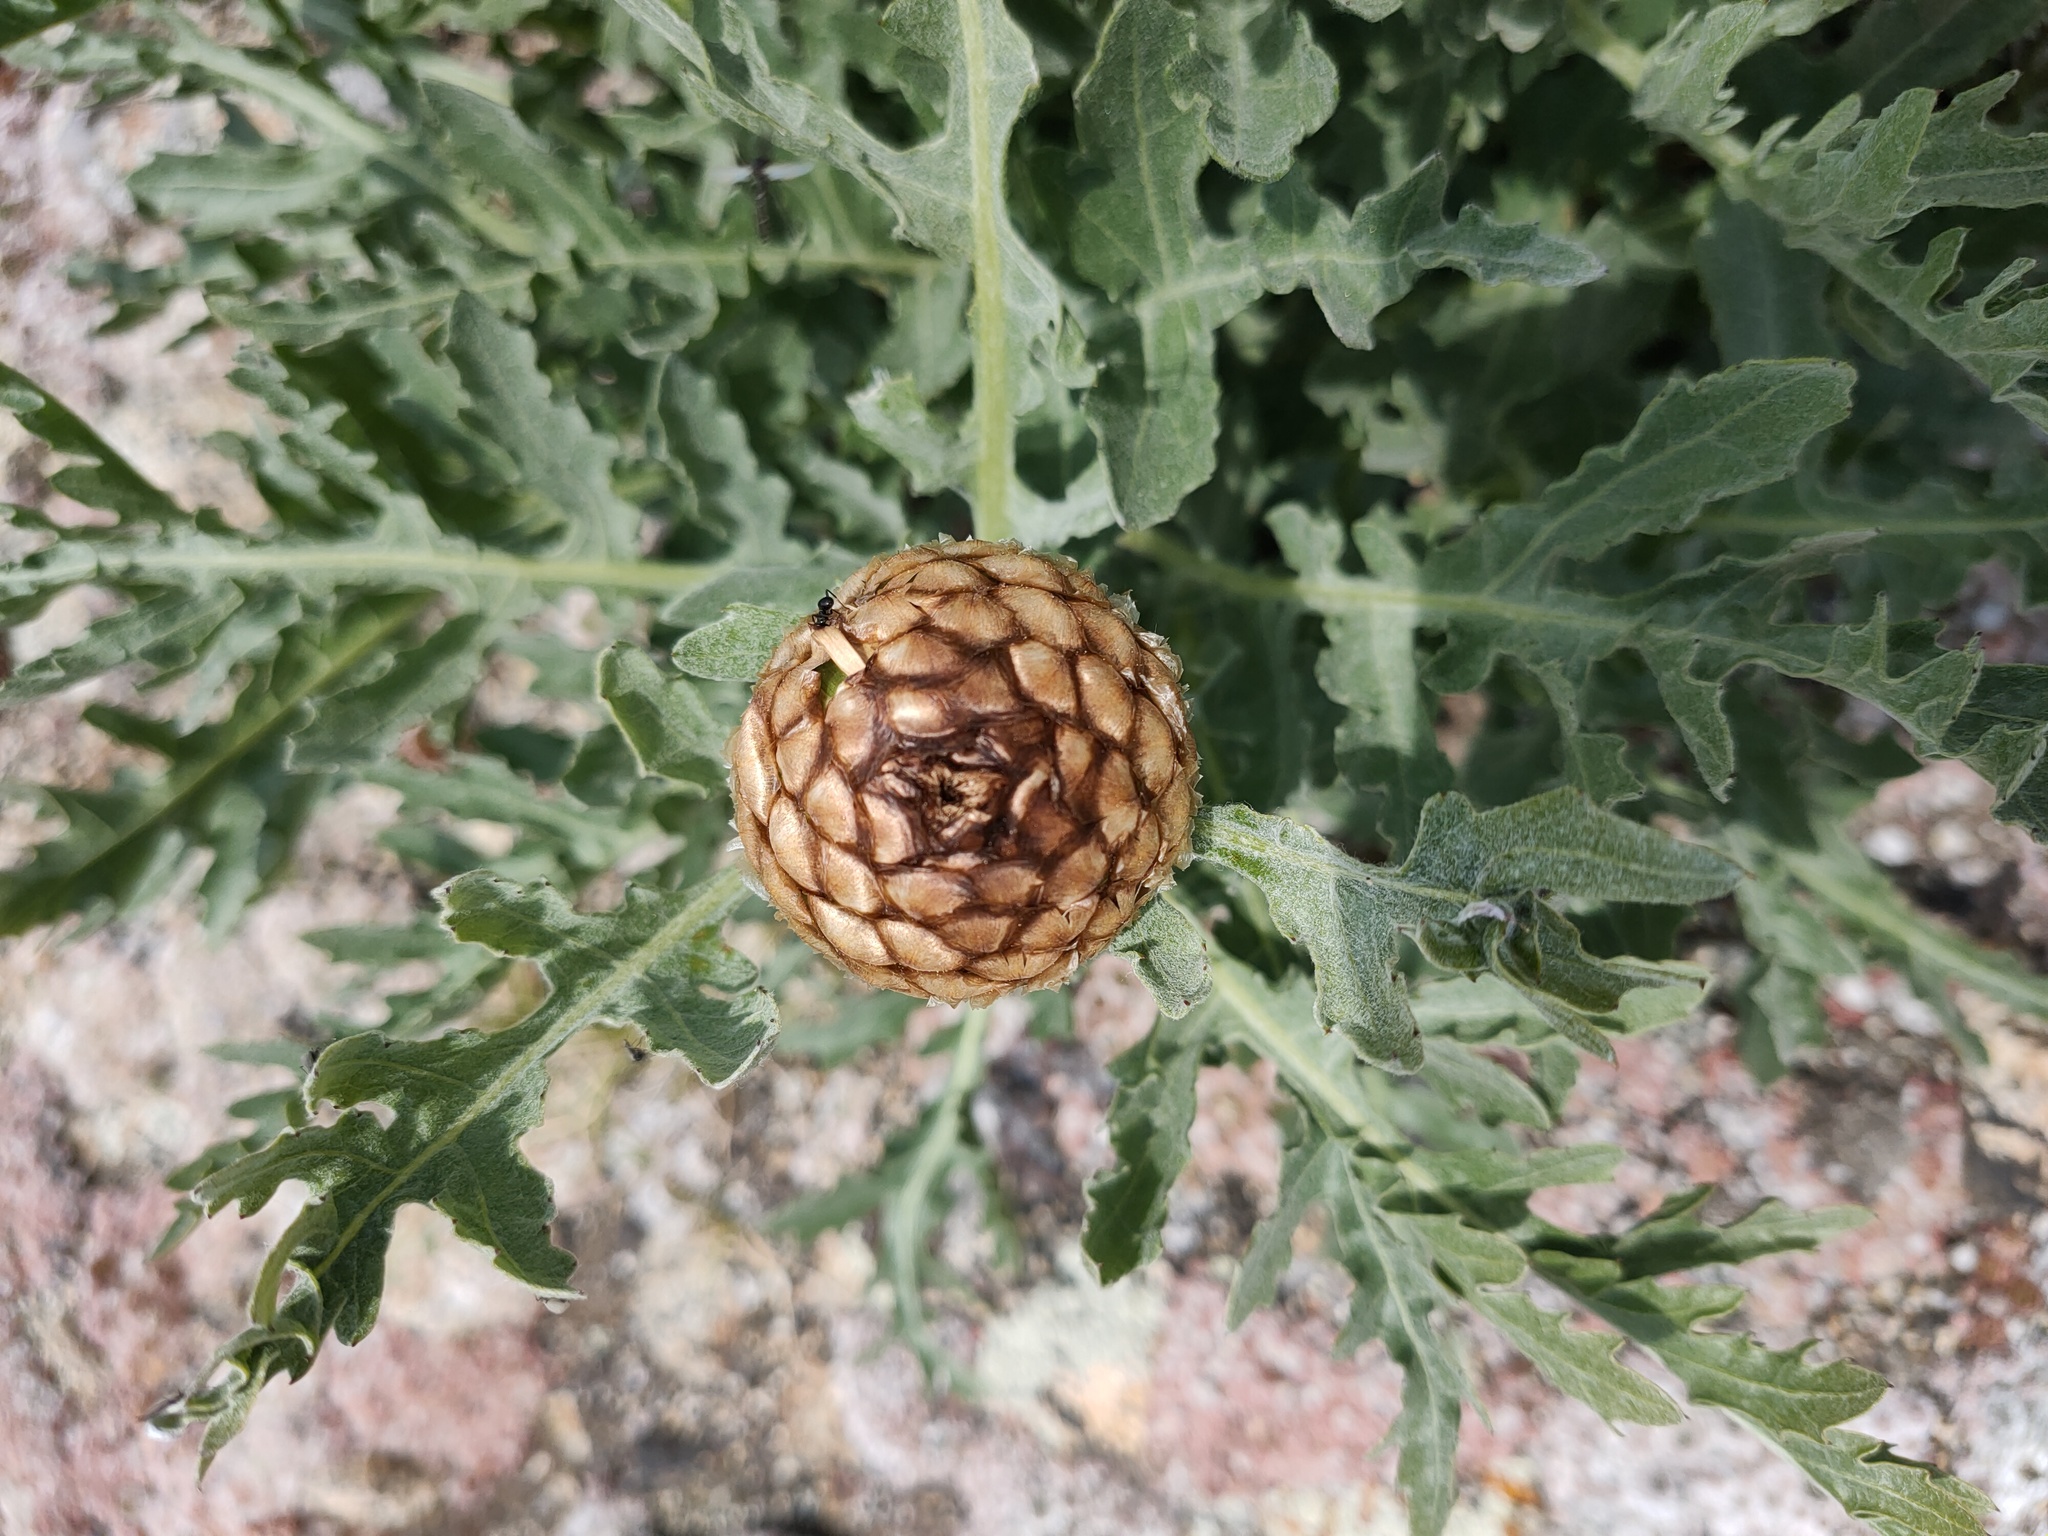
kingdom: Plantae
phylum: Tracheophyta
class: Magnoliopsida
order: Asterales
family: Asteraceae
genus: Leuzea
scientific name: Leuzea uniflora
